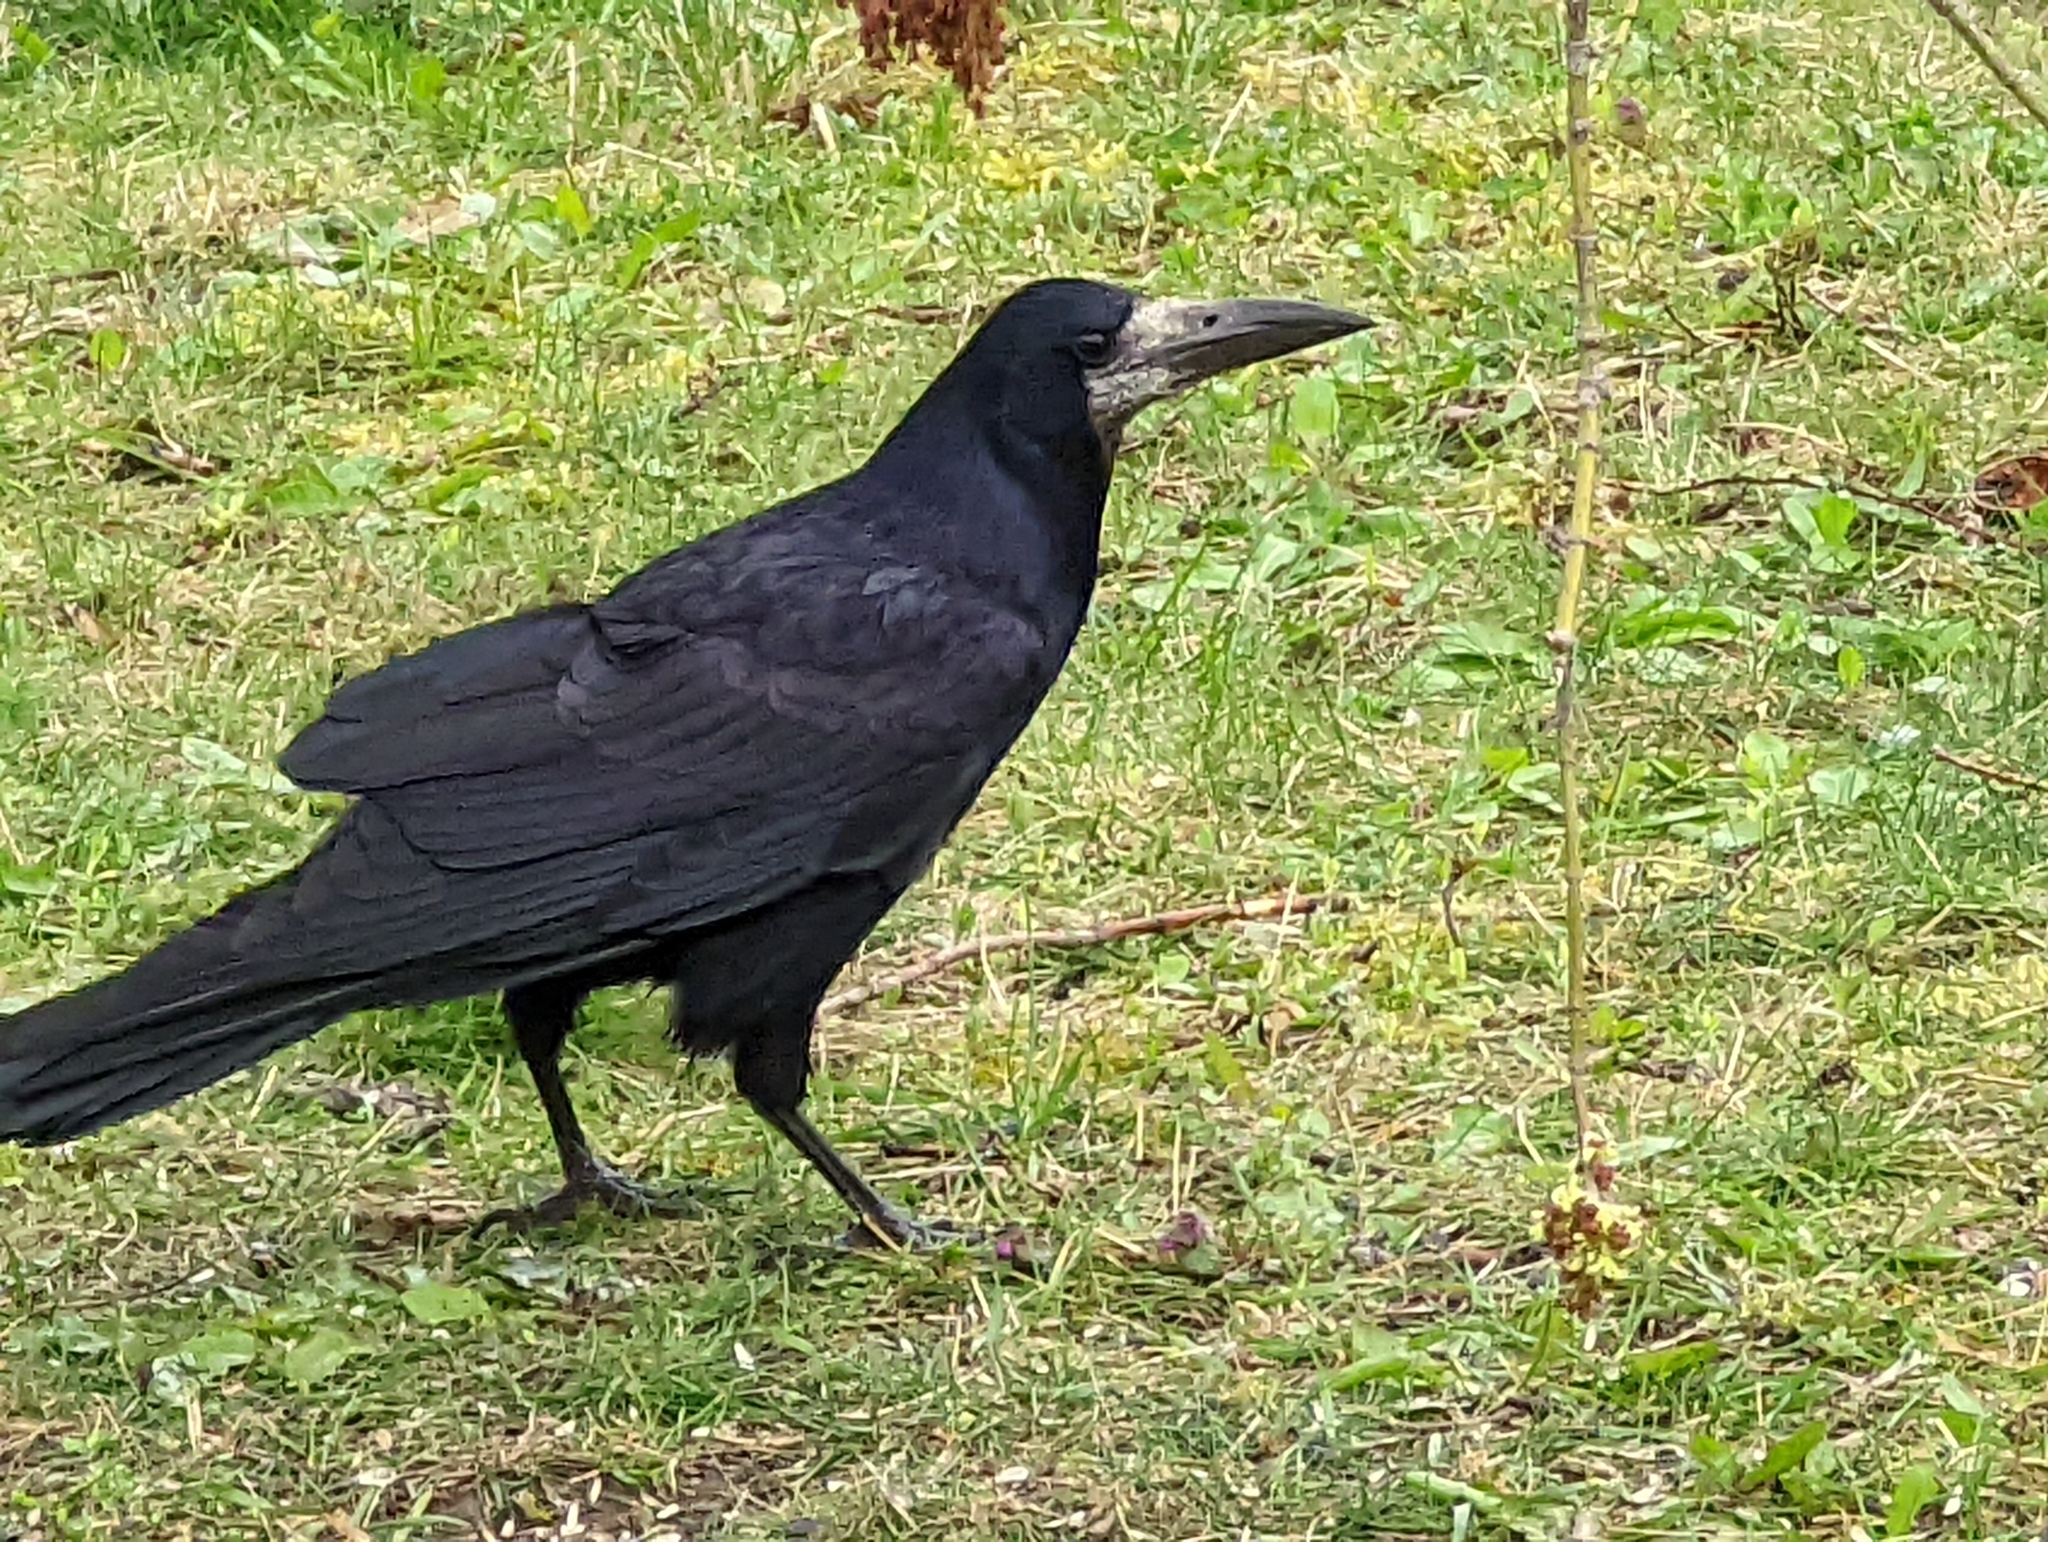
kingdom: Animalia
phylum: Chordata
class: Aves
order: Passeriformes
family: Corvidae
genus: Corvus
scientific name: Corvus frugilegus
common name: Rook
